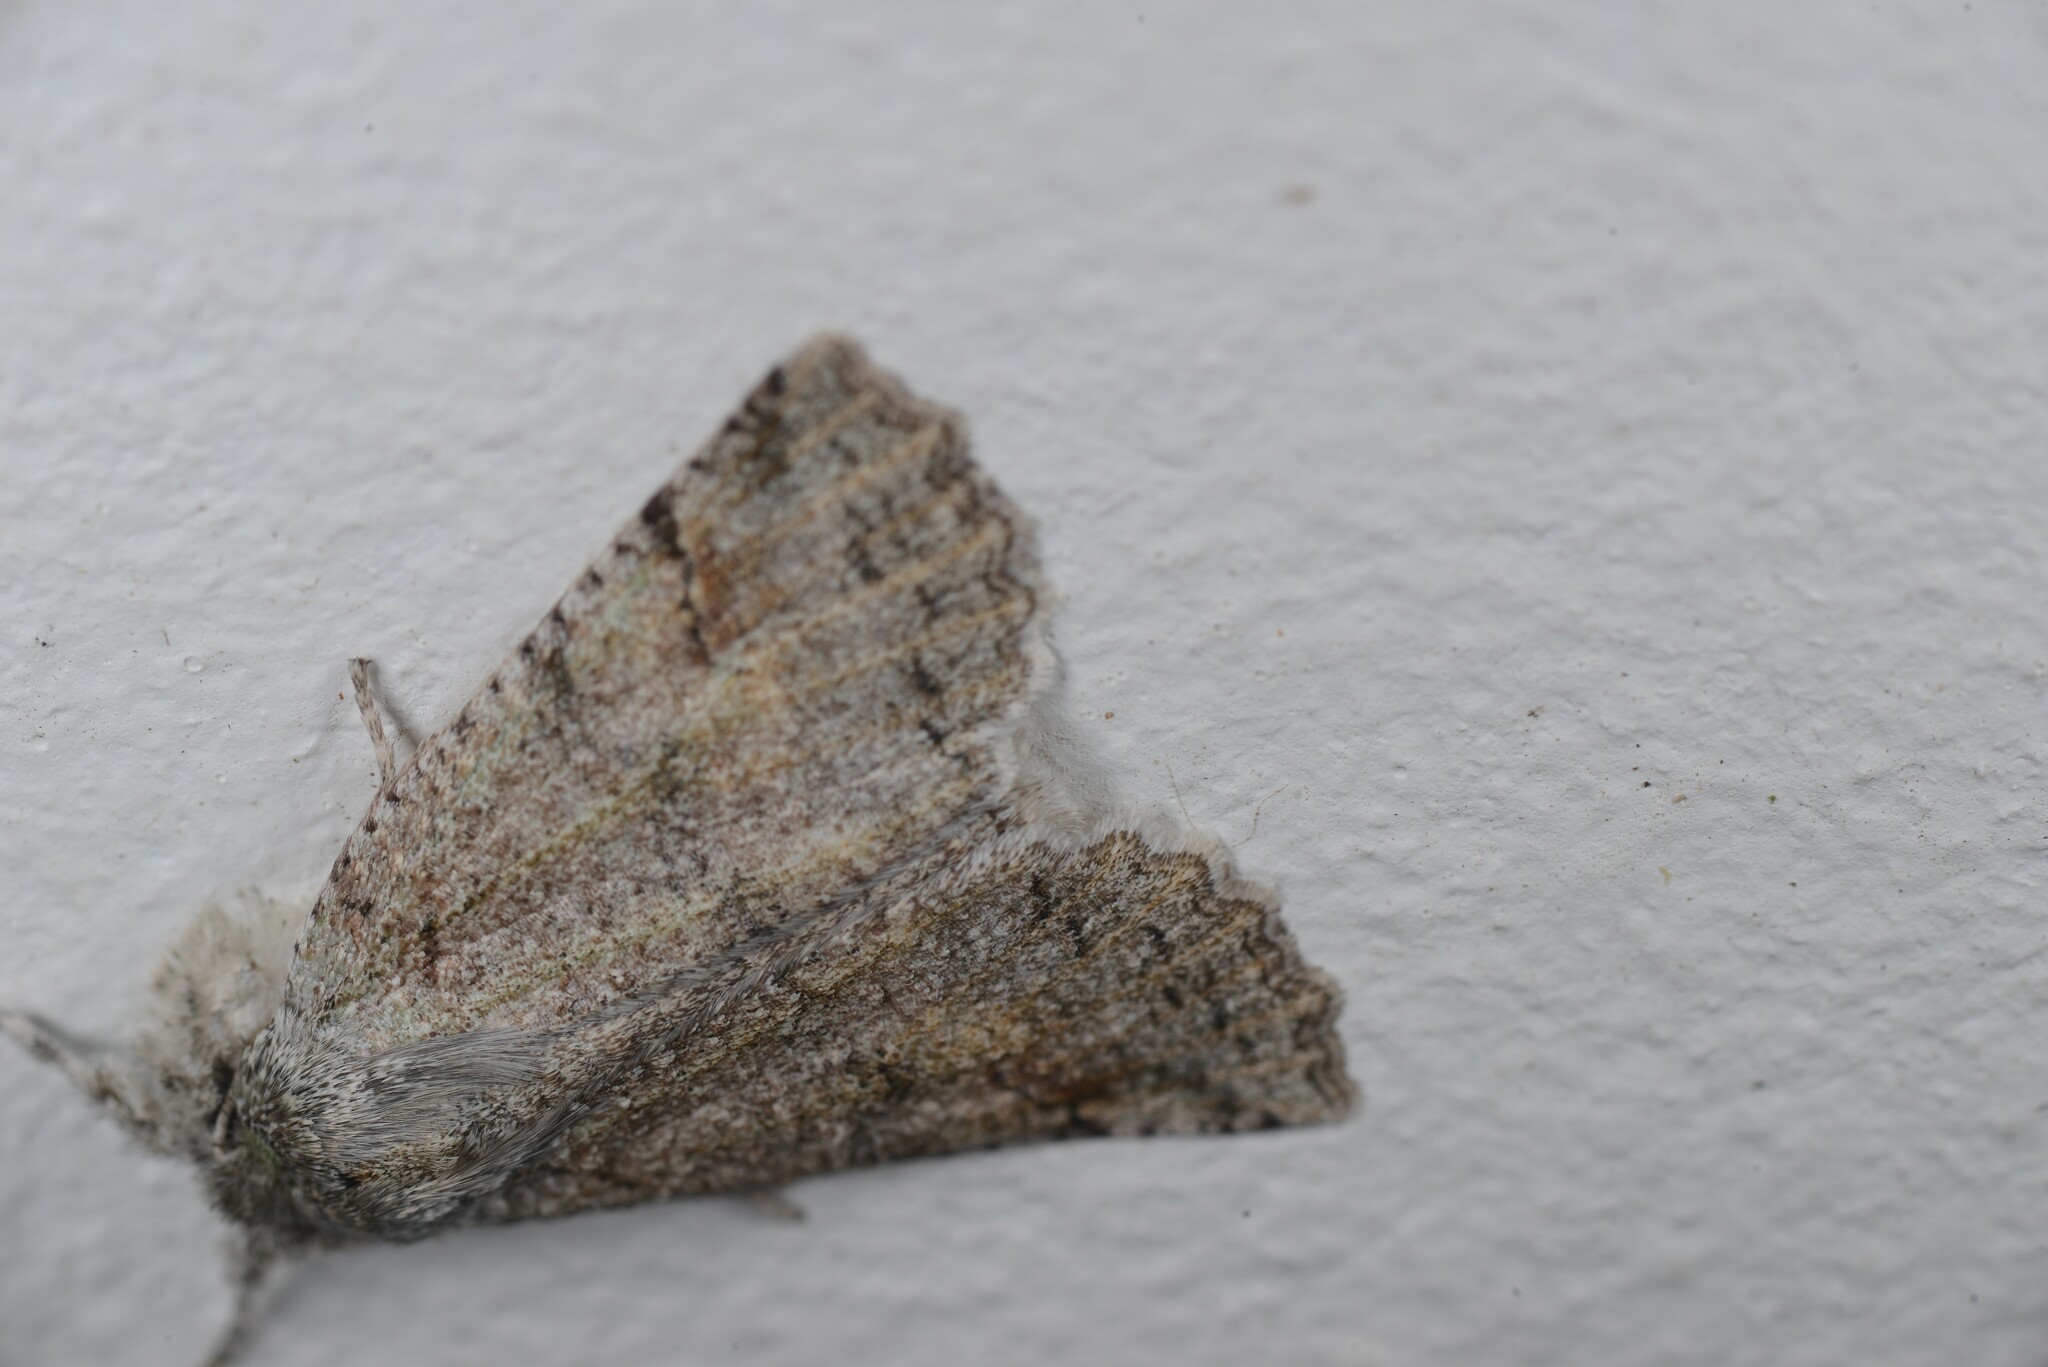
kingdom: Animalia
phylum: Arthropoda
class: Insecta
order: Lepidoptera
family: Geometridae
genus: Declana
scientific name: Declana floccosa
